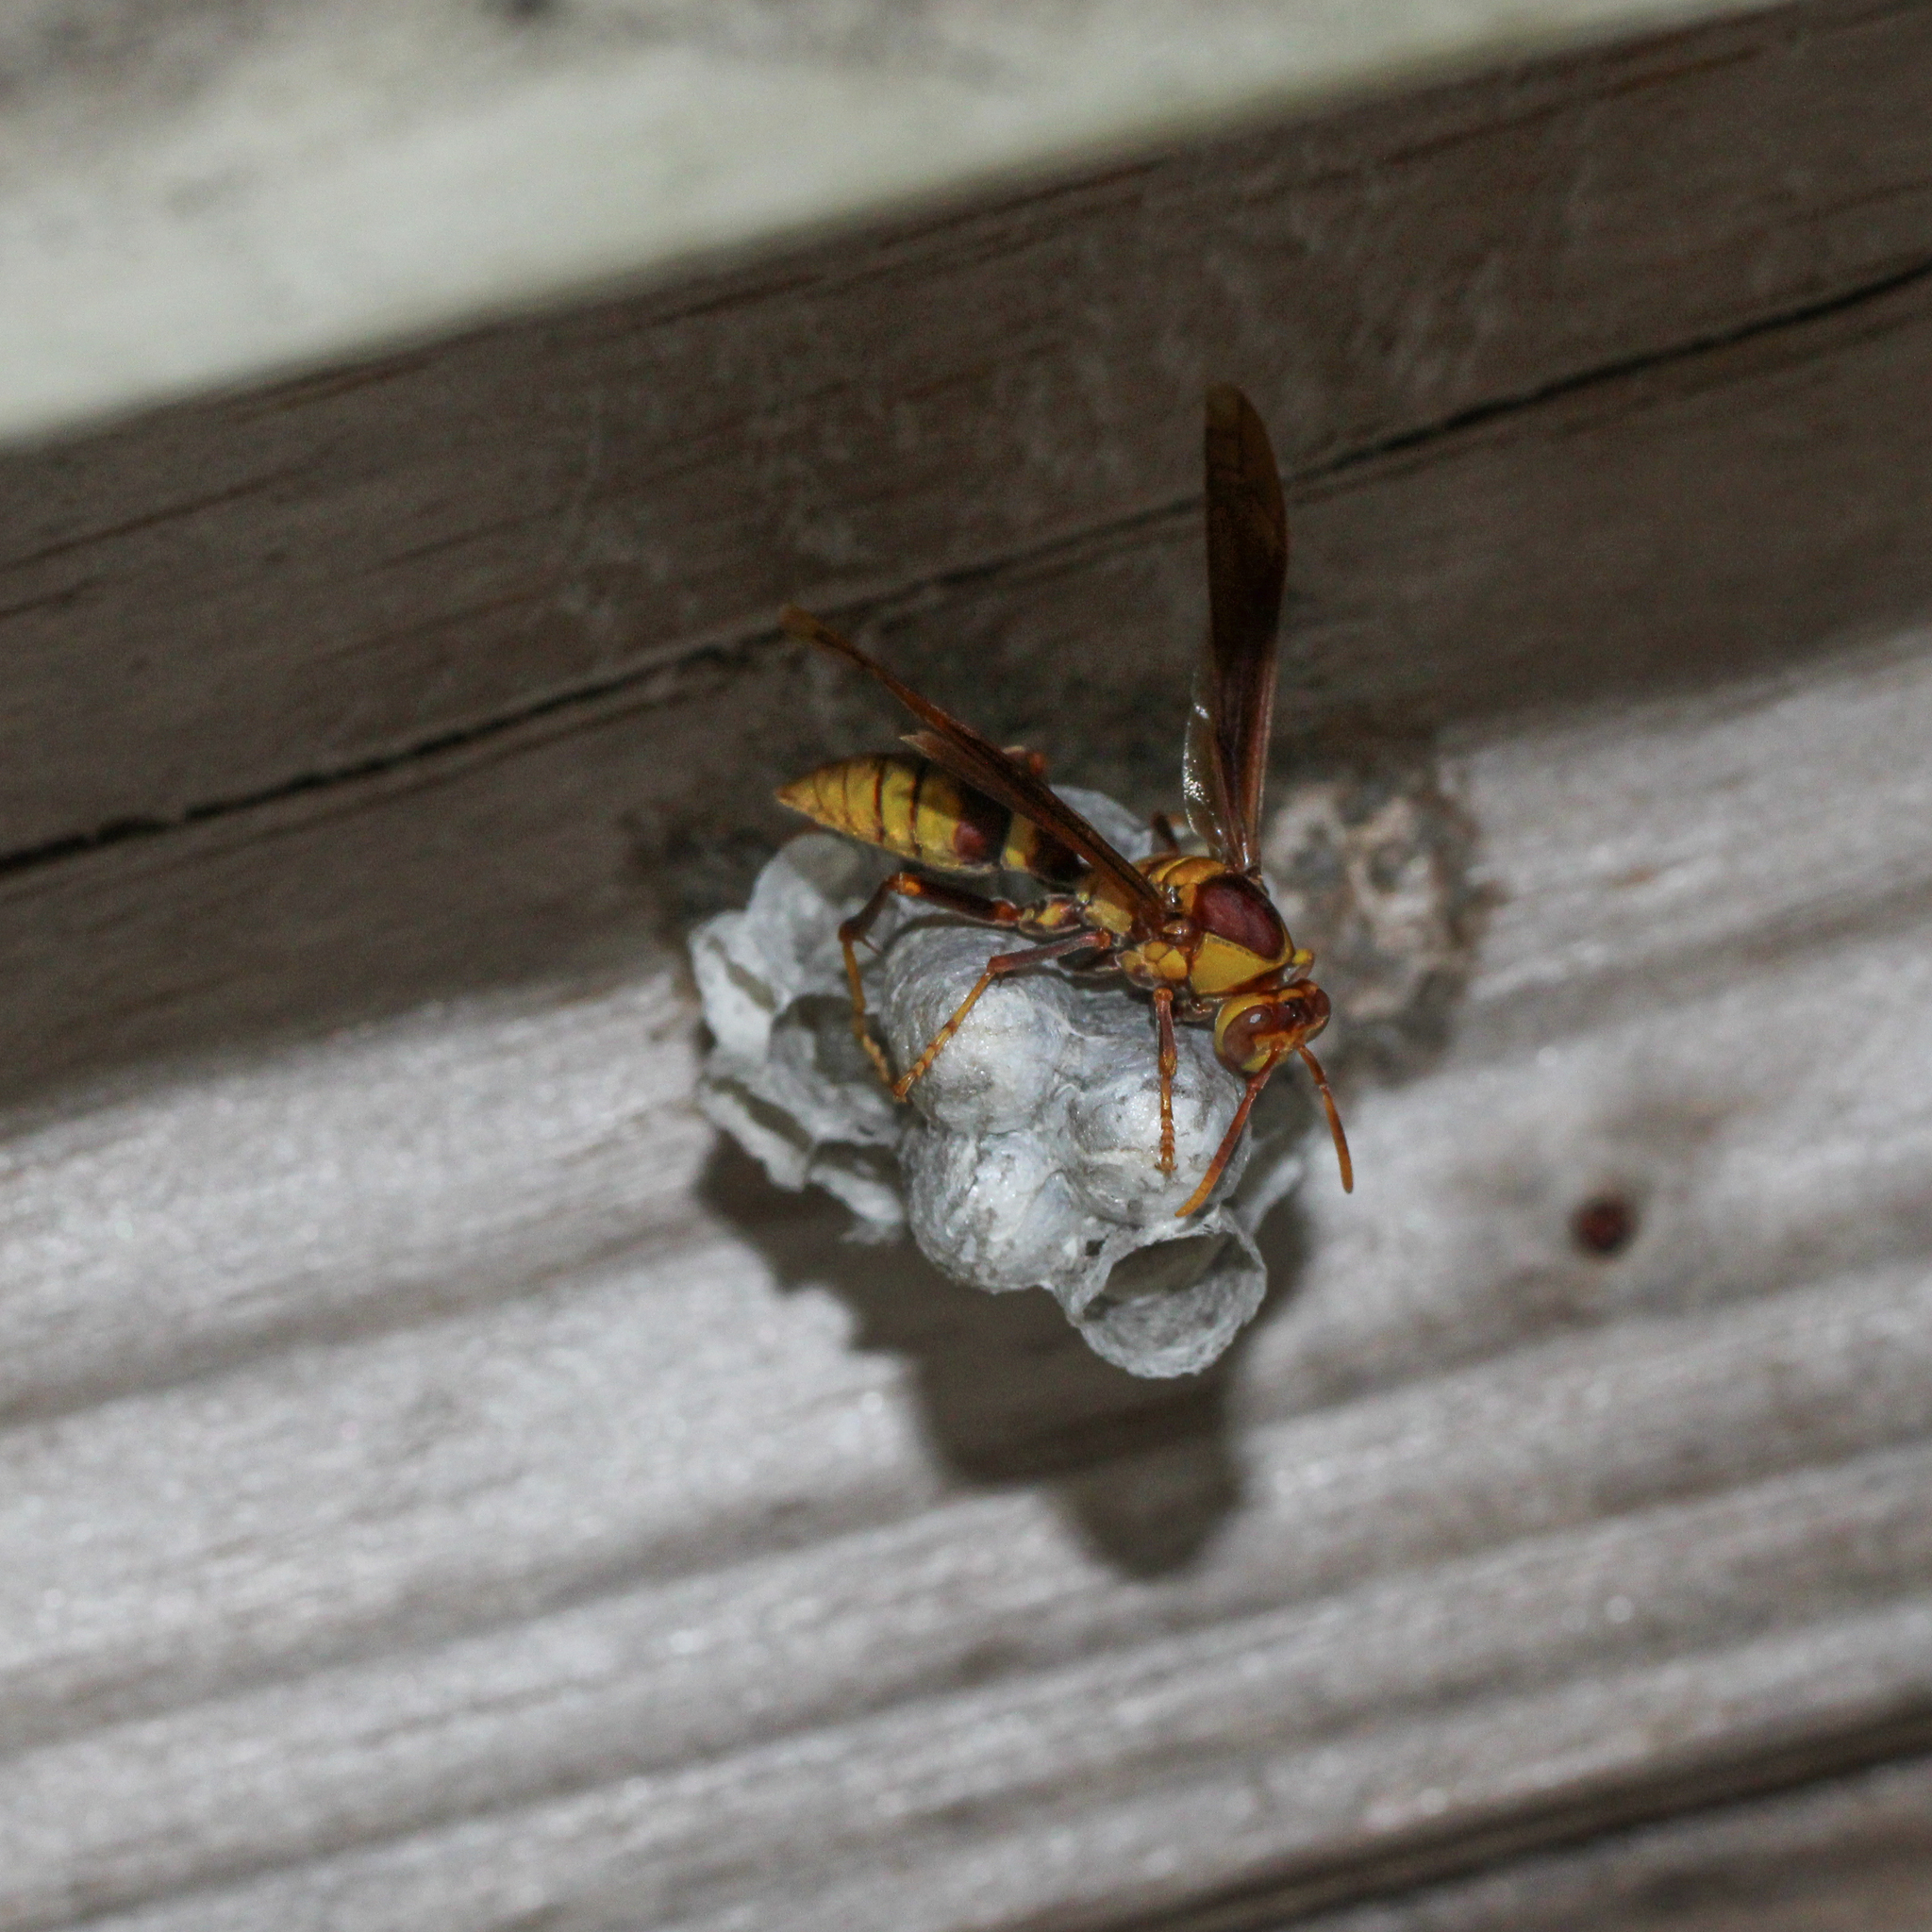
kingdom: Animalia
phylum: Arthropoda
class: Insecta
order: Hymenoptera
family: Eumenidae
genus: Polistes
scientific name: Polistes major
